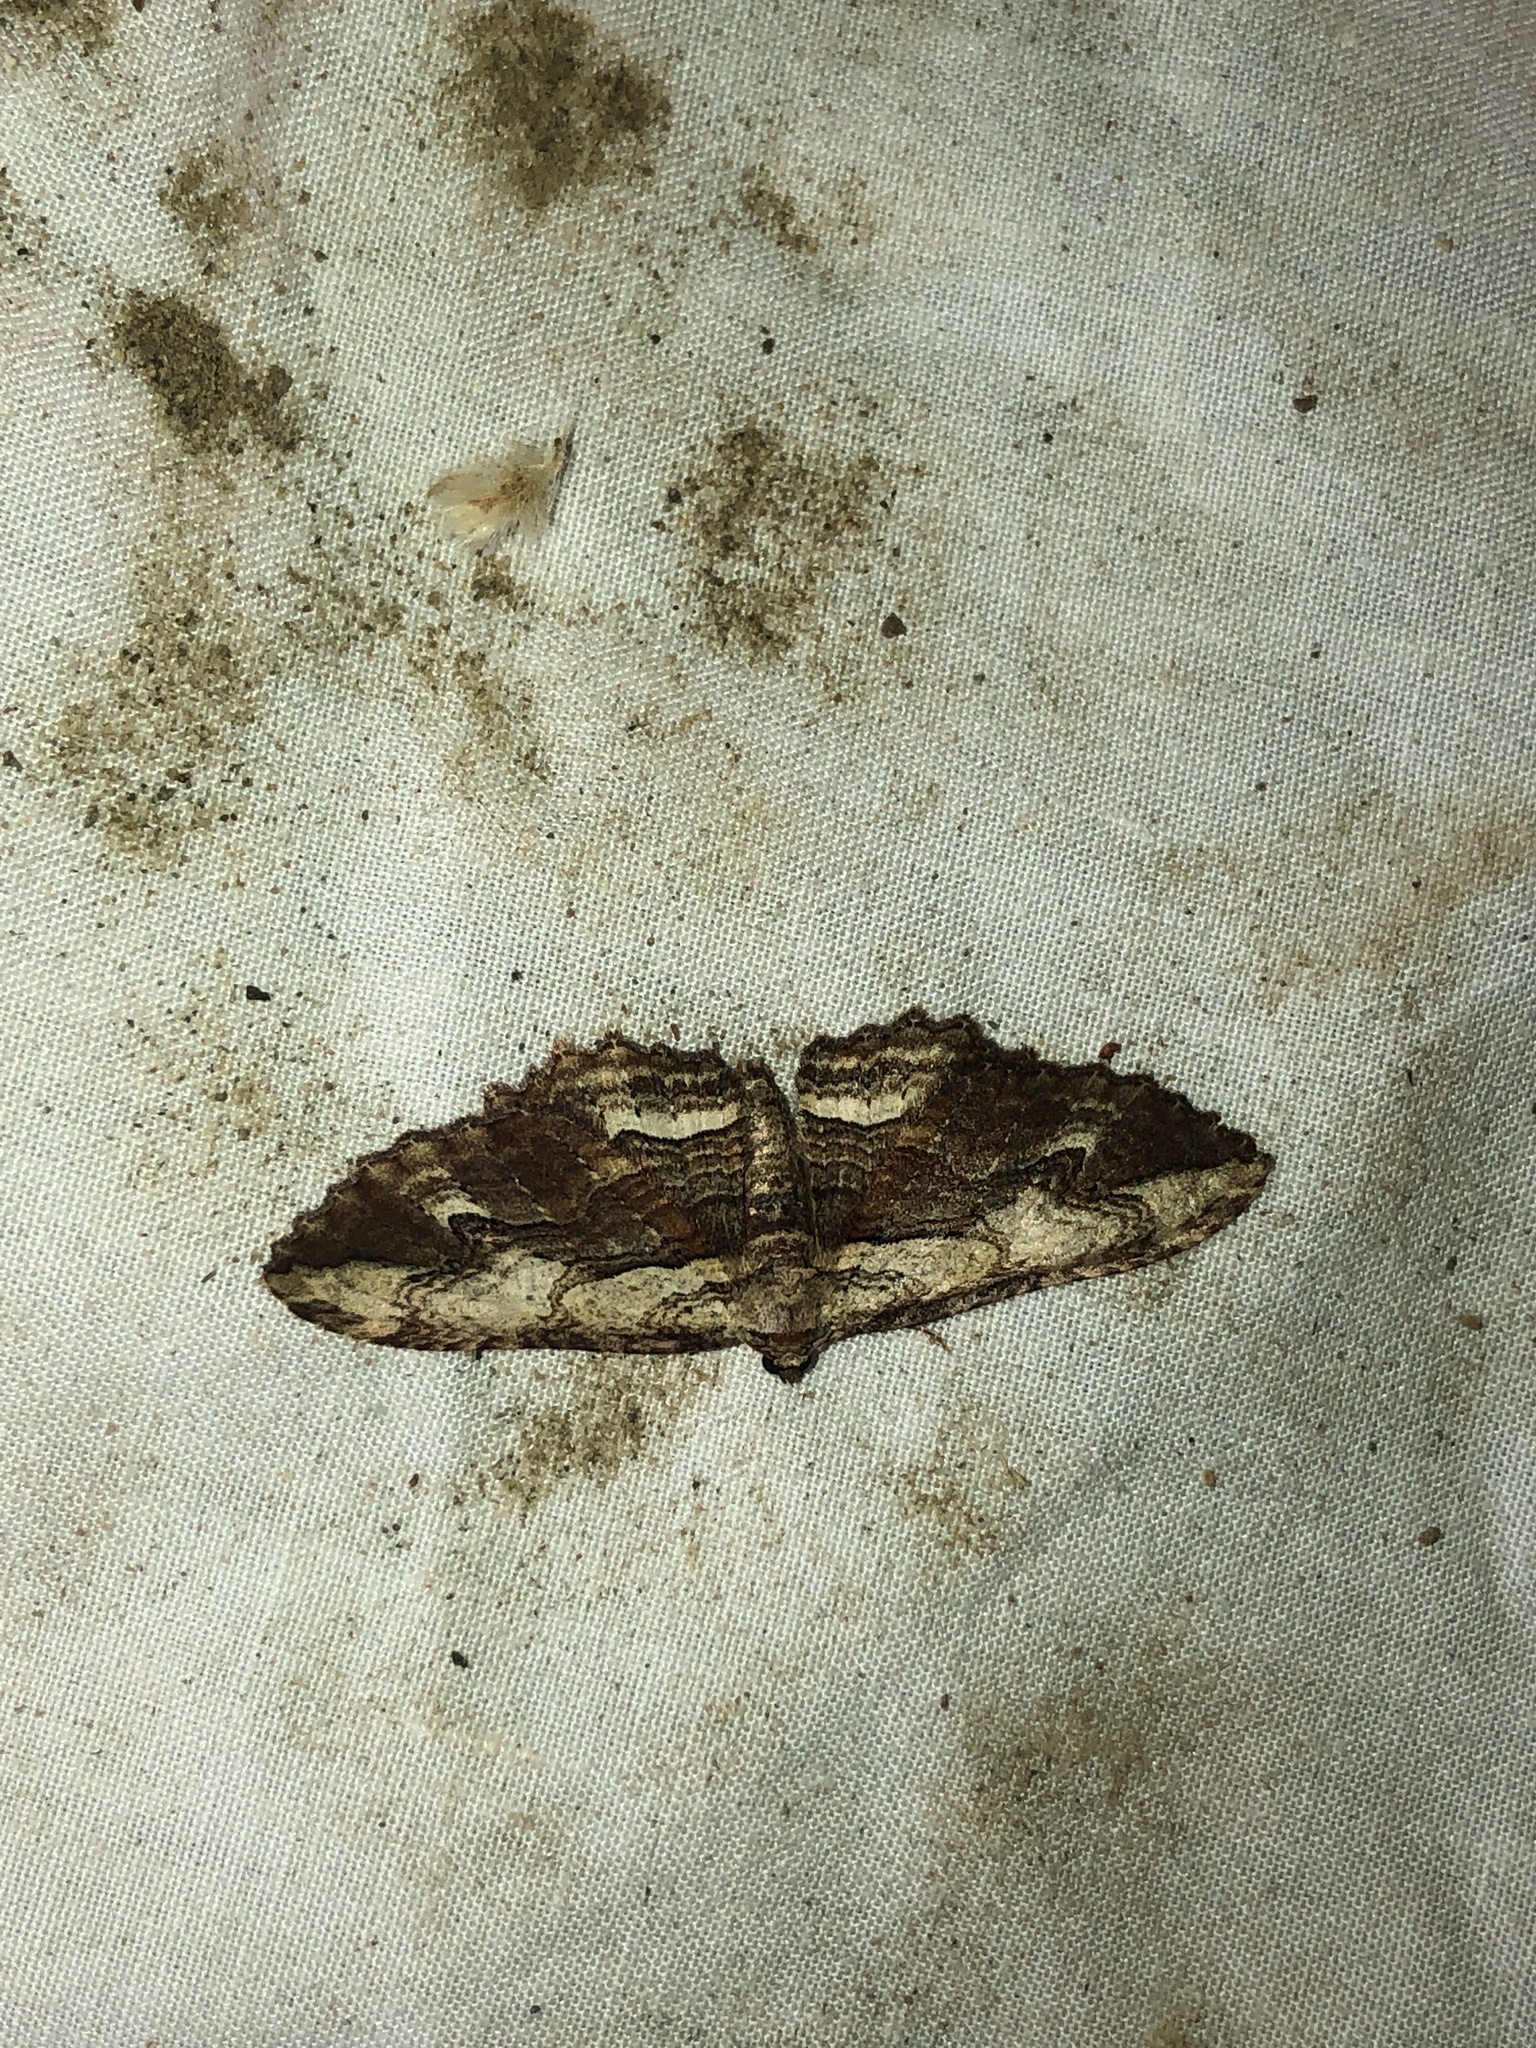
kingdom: Animalia
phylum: Arthropoda
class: Insecta
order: Lepidoptera
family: Geometridae
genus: Austrocidaria
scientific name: Austrocidaria bipartita
